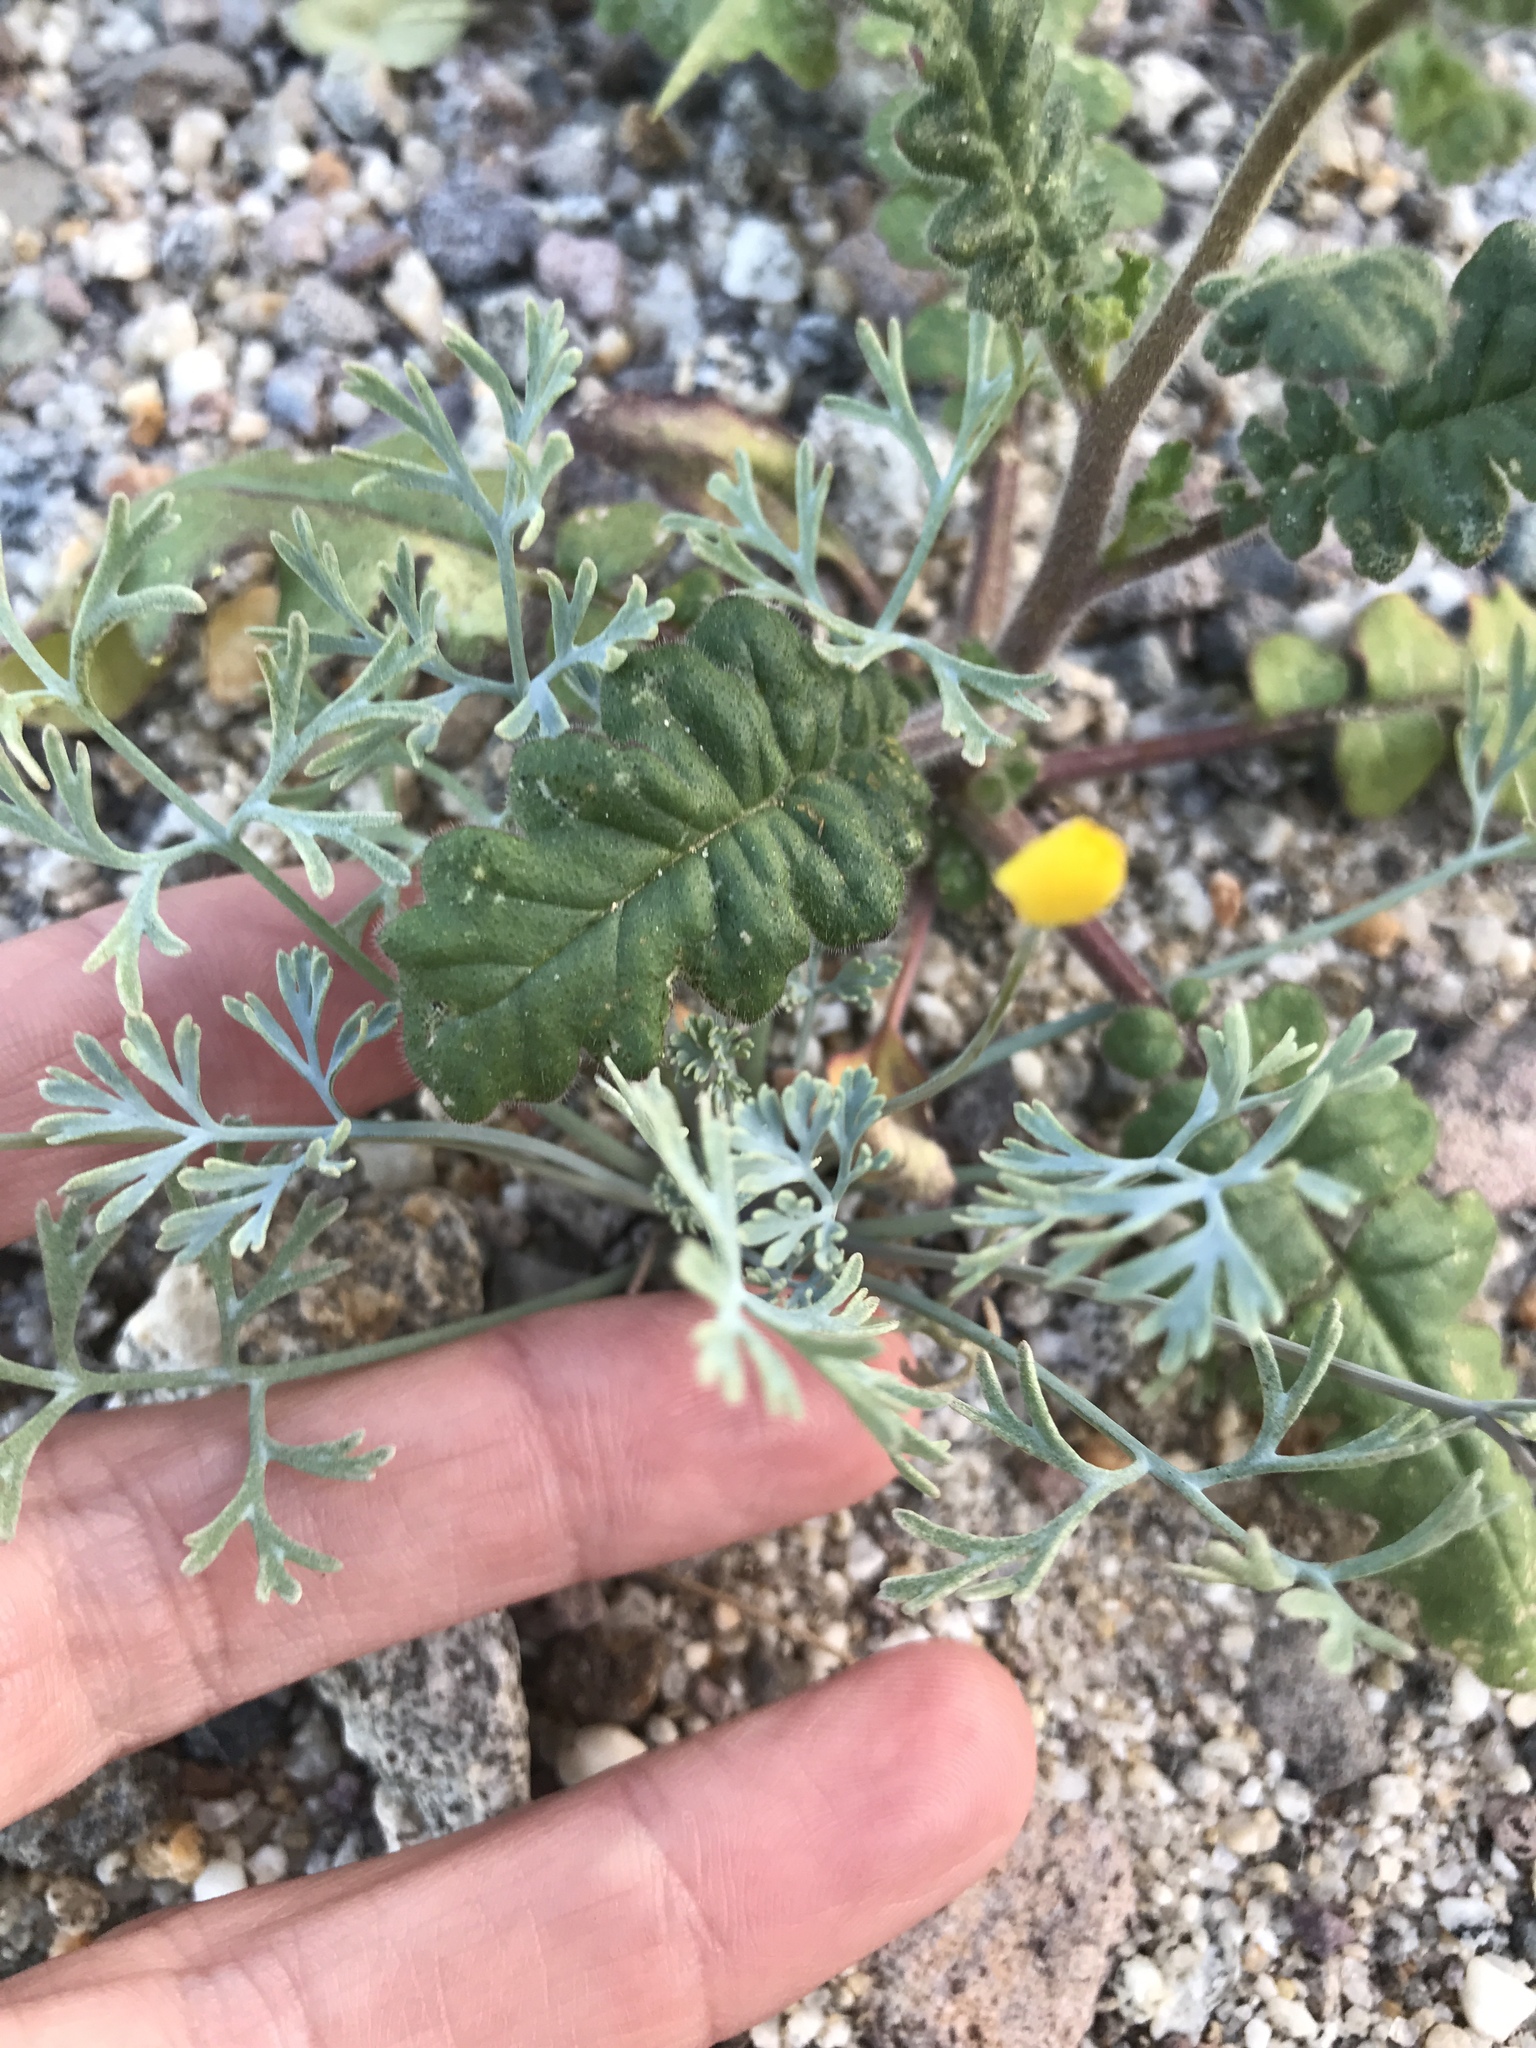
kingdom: Plantae
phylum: Tracheophyta
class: Magnoliopsida
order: Ranunculales
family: Papaveraceae
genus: Eschscholzia
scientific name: Eschscholzia minutiflora
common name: Small-flower california-poppy
